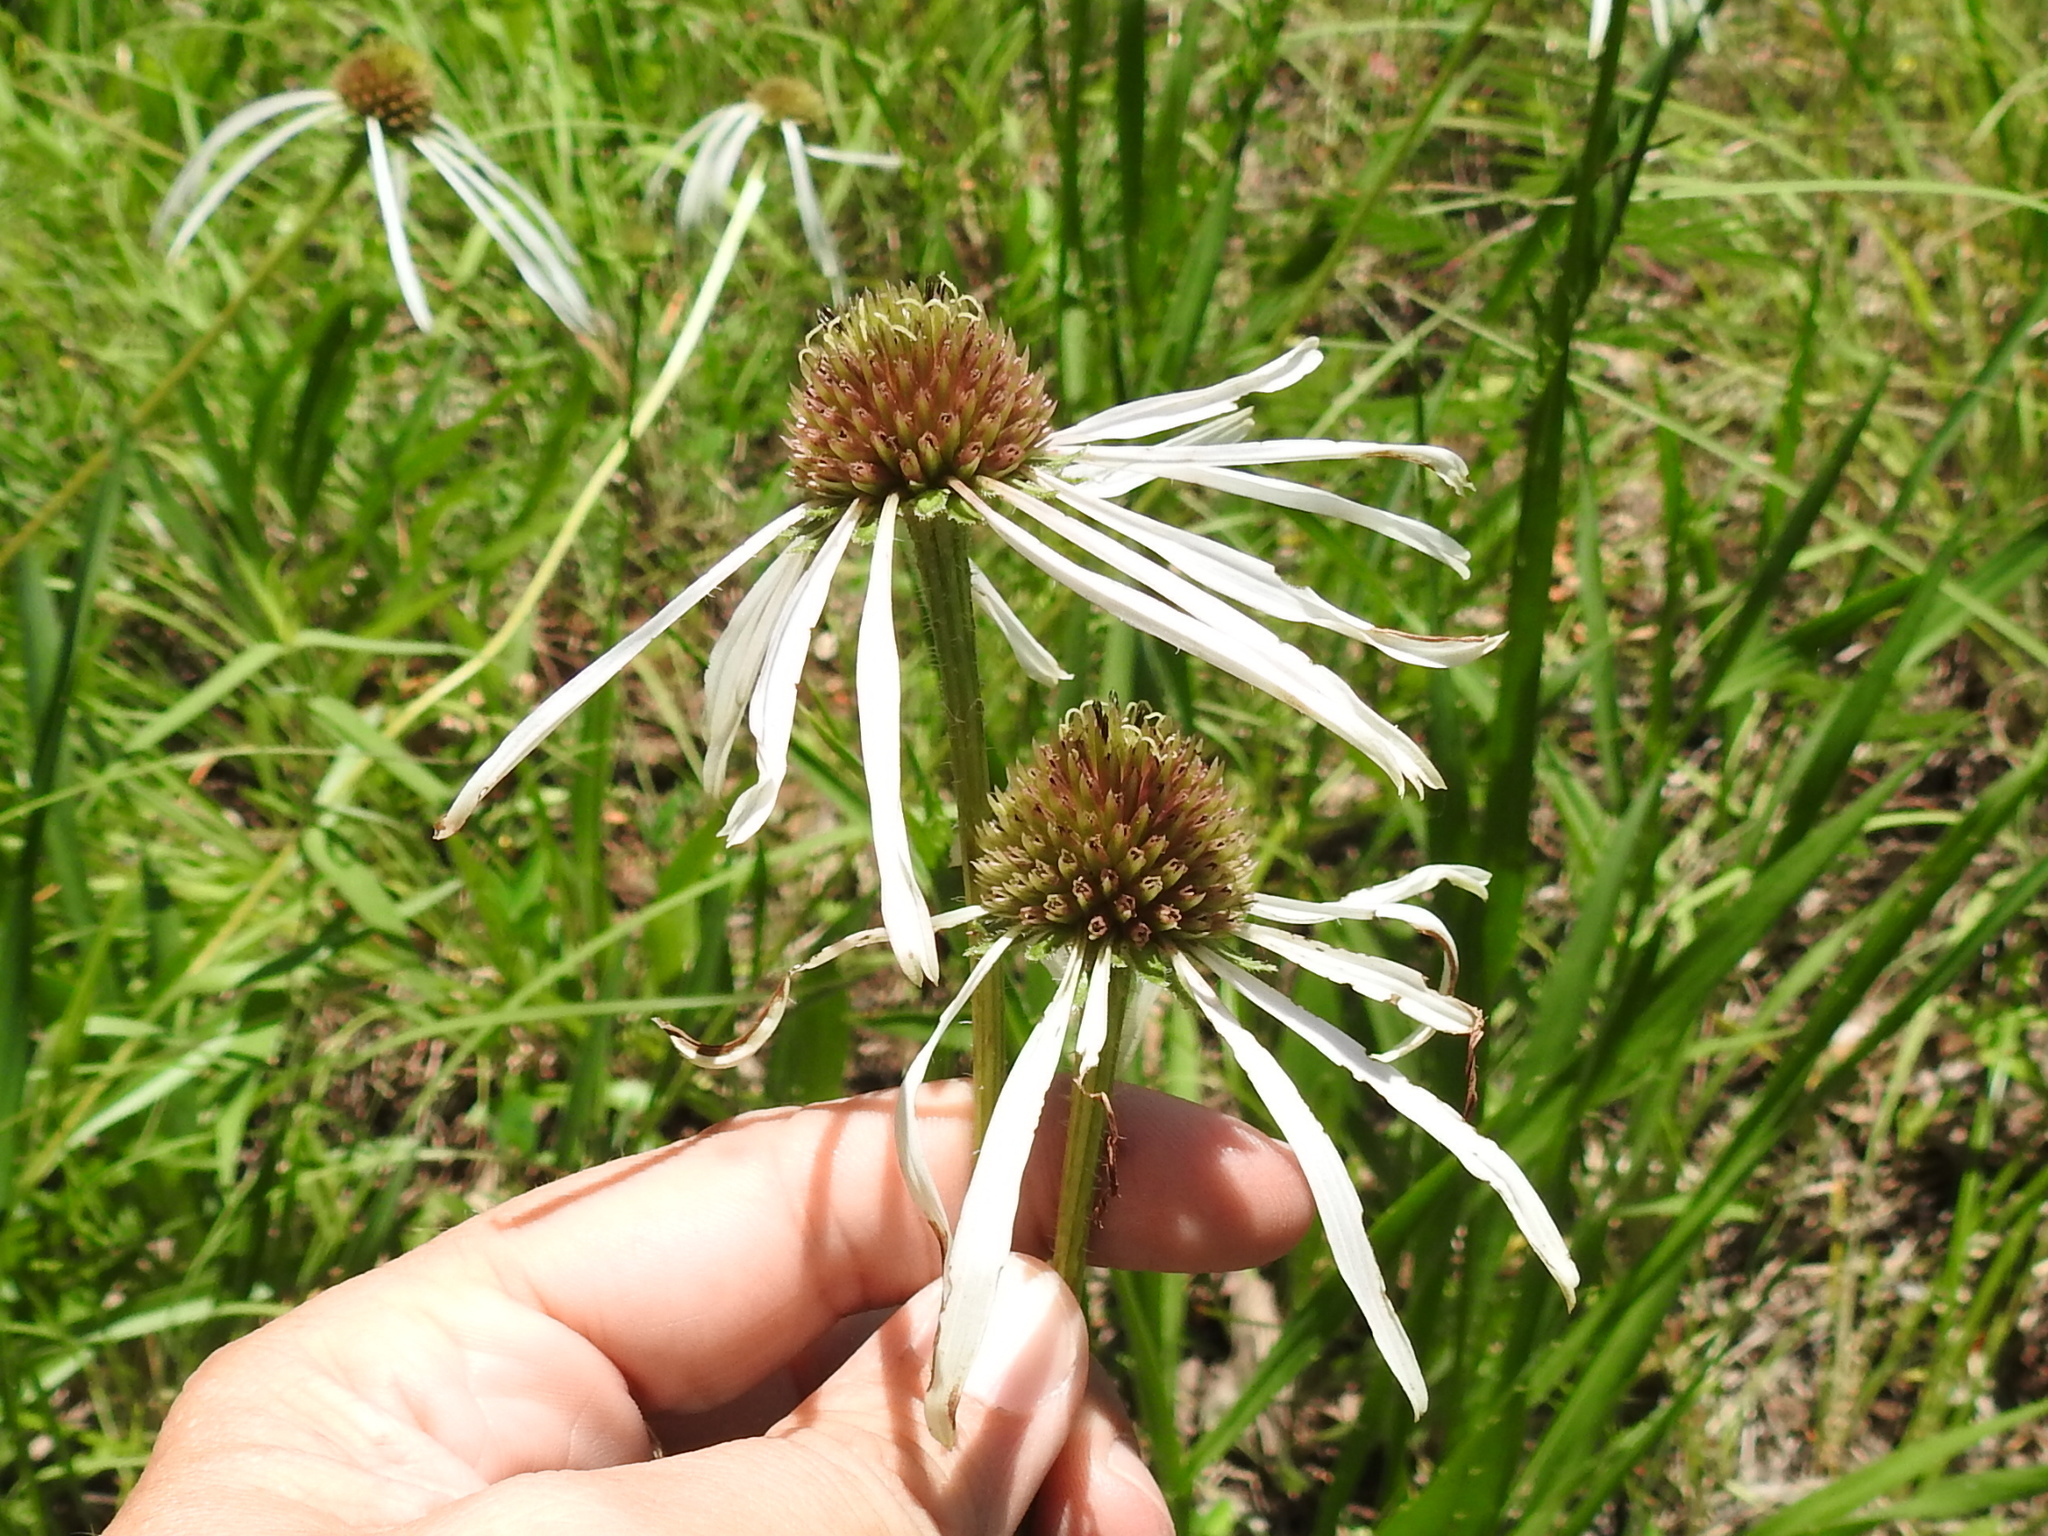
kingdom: Plantae
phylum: Tracheophyta
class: Magnoliopsida
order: Asterales
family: Asteraceae
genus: Echinacea
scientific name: Echinacea pallida
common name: Pale echinacea
